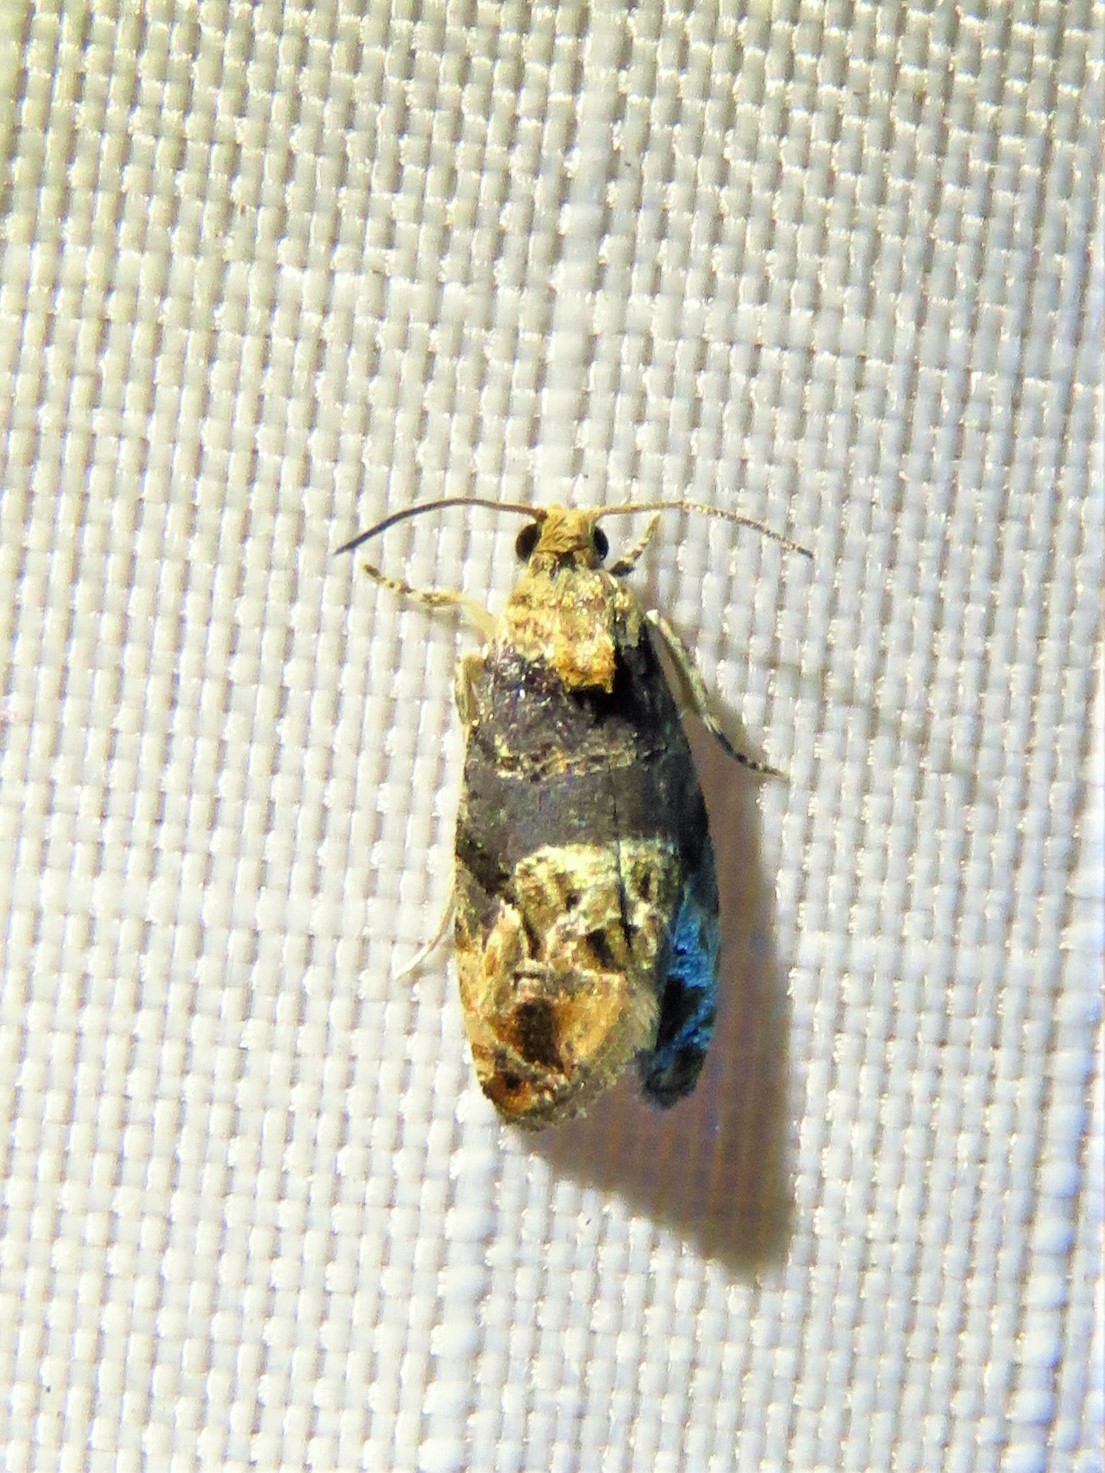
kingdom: Animalia
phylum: Arthropoda
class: Insecta
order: Lepidoptera
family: Tortricidae
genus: Paralobesia
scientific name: Paralobesia viteana
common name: Grape berry moth
